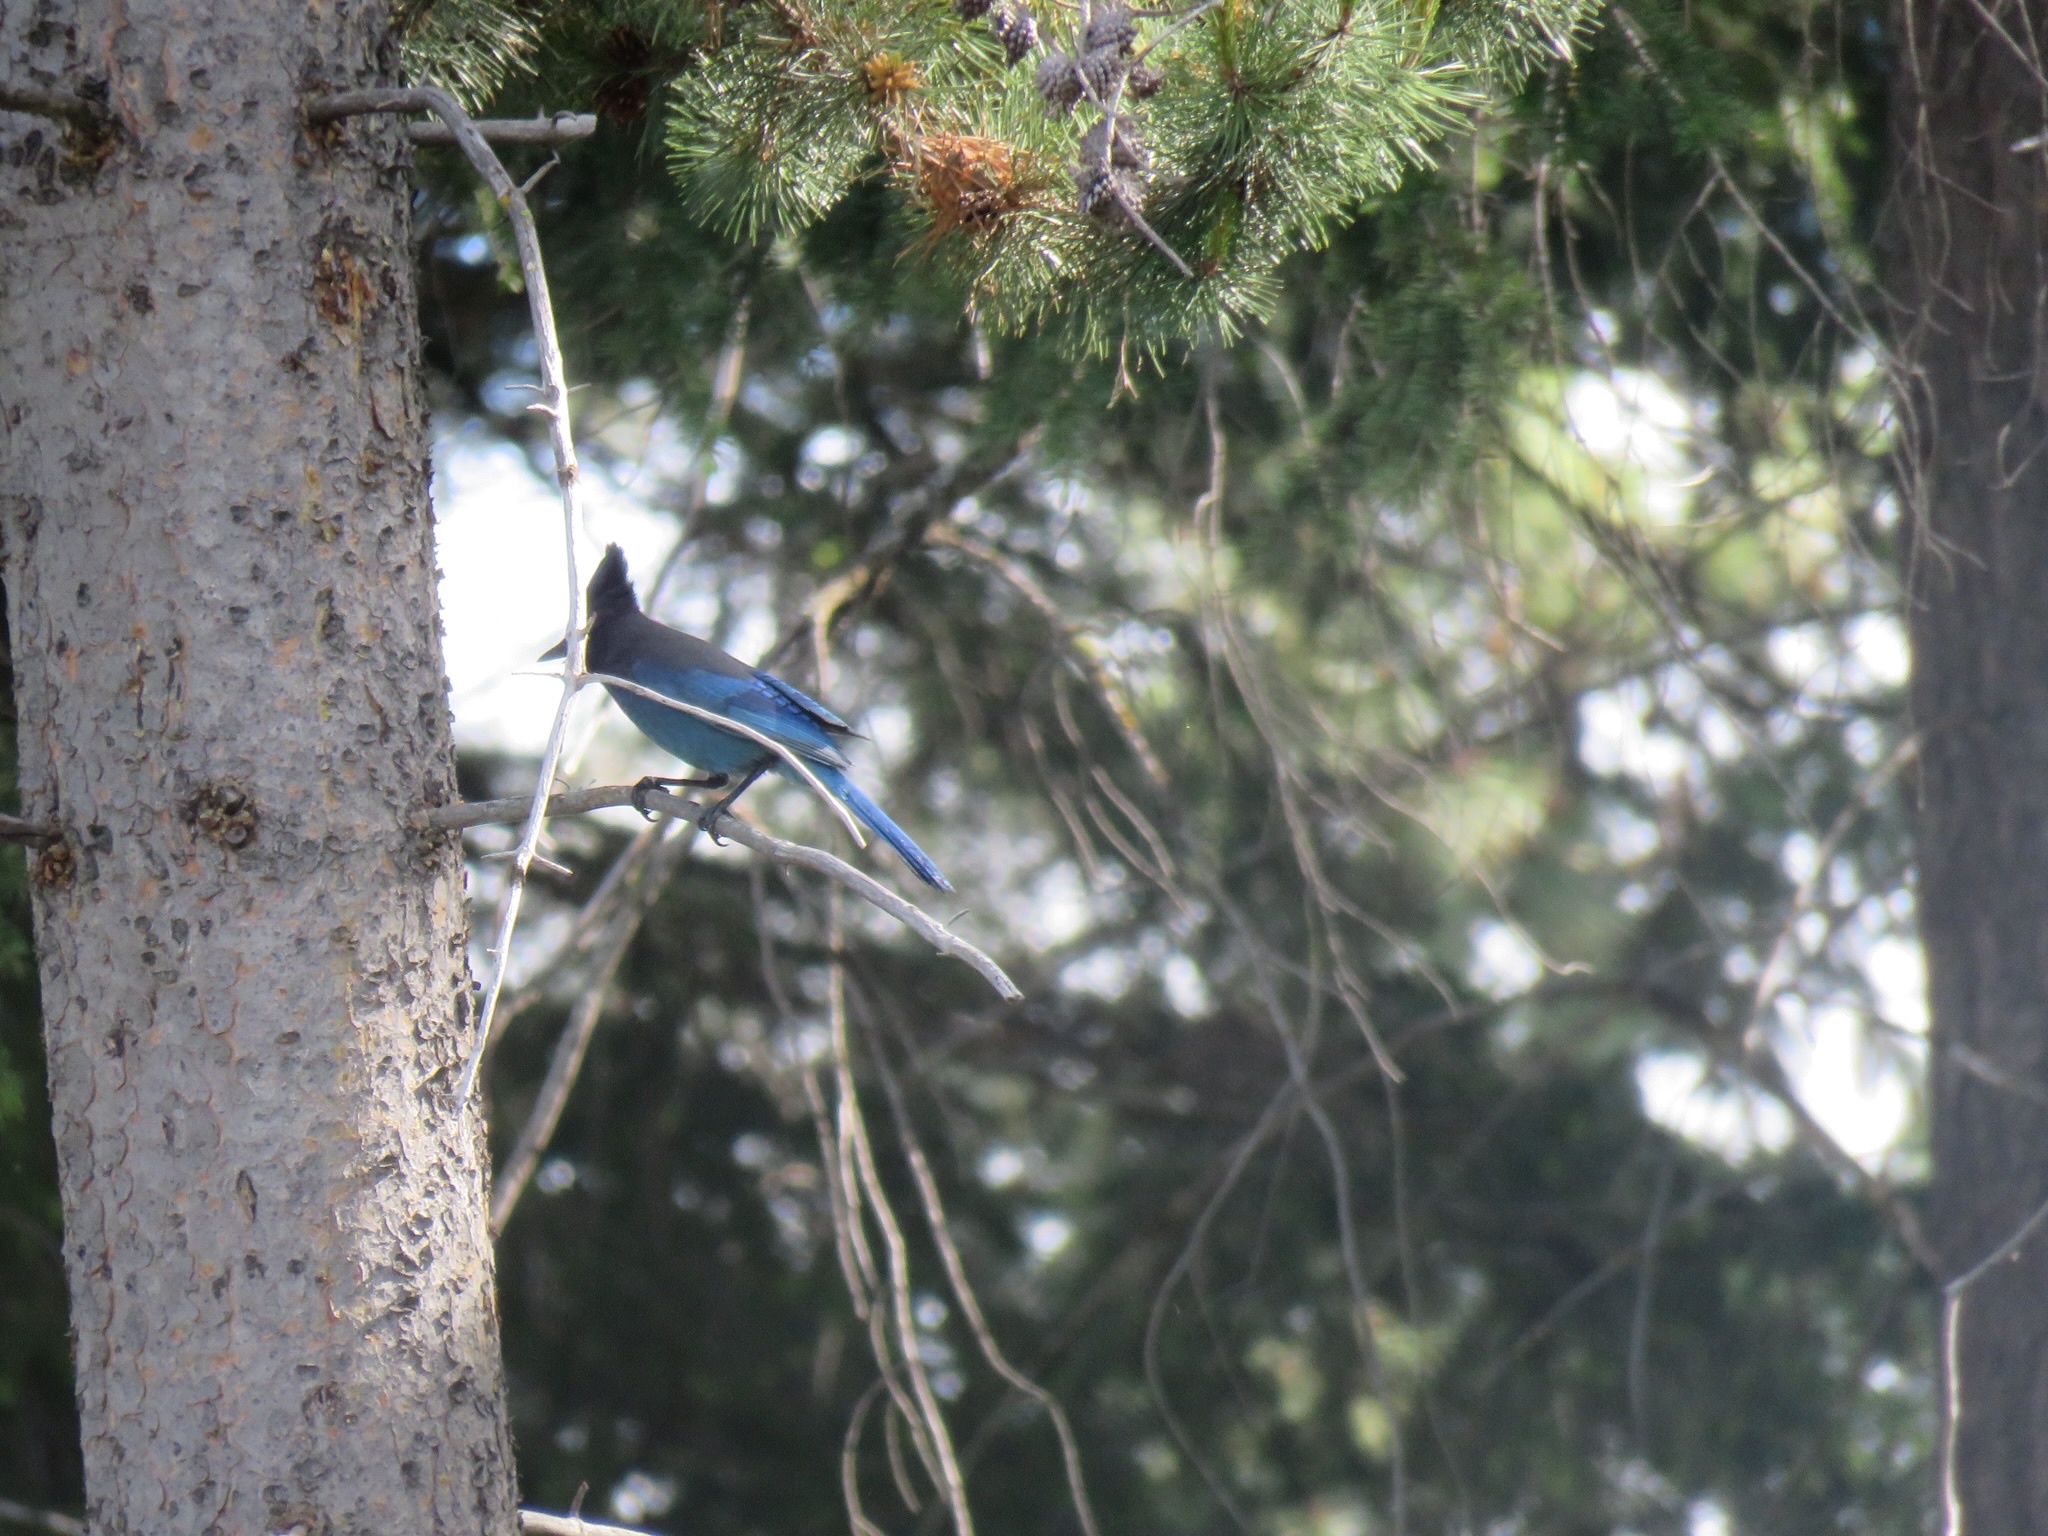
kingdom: Animalia
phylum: Chordata
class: Aves
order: Passeriformes
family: Corvidae
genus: Cyanocitta
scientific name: Cyanocitta stelleri
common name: Steller's jay
